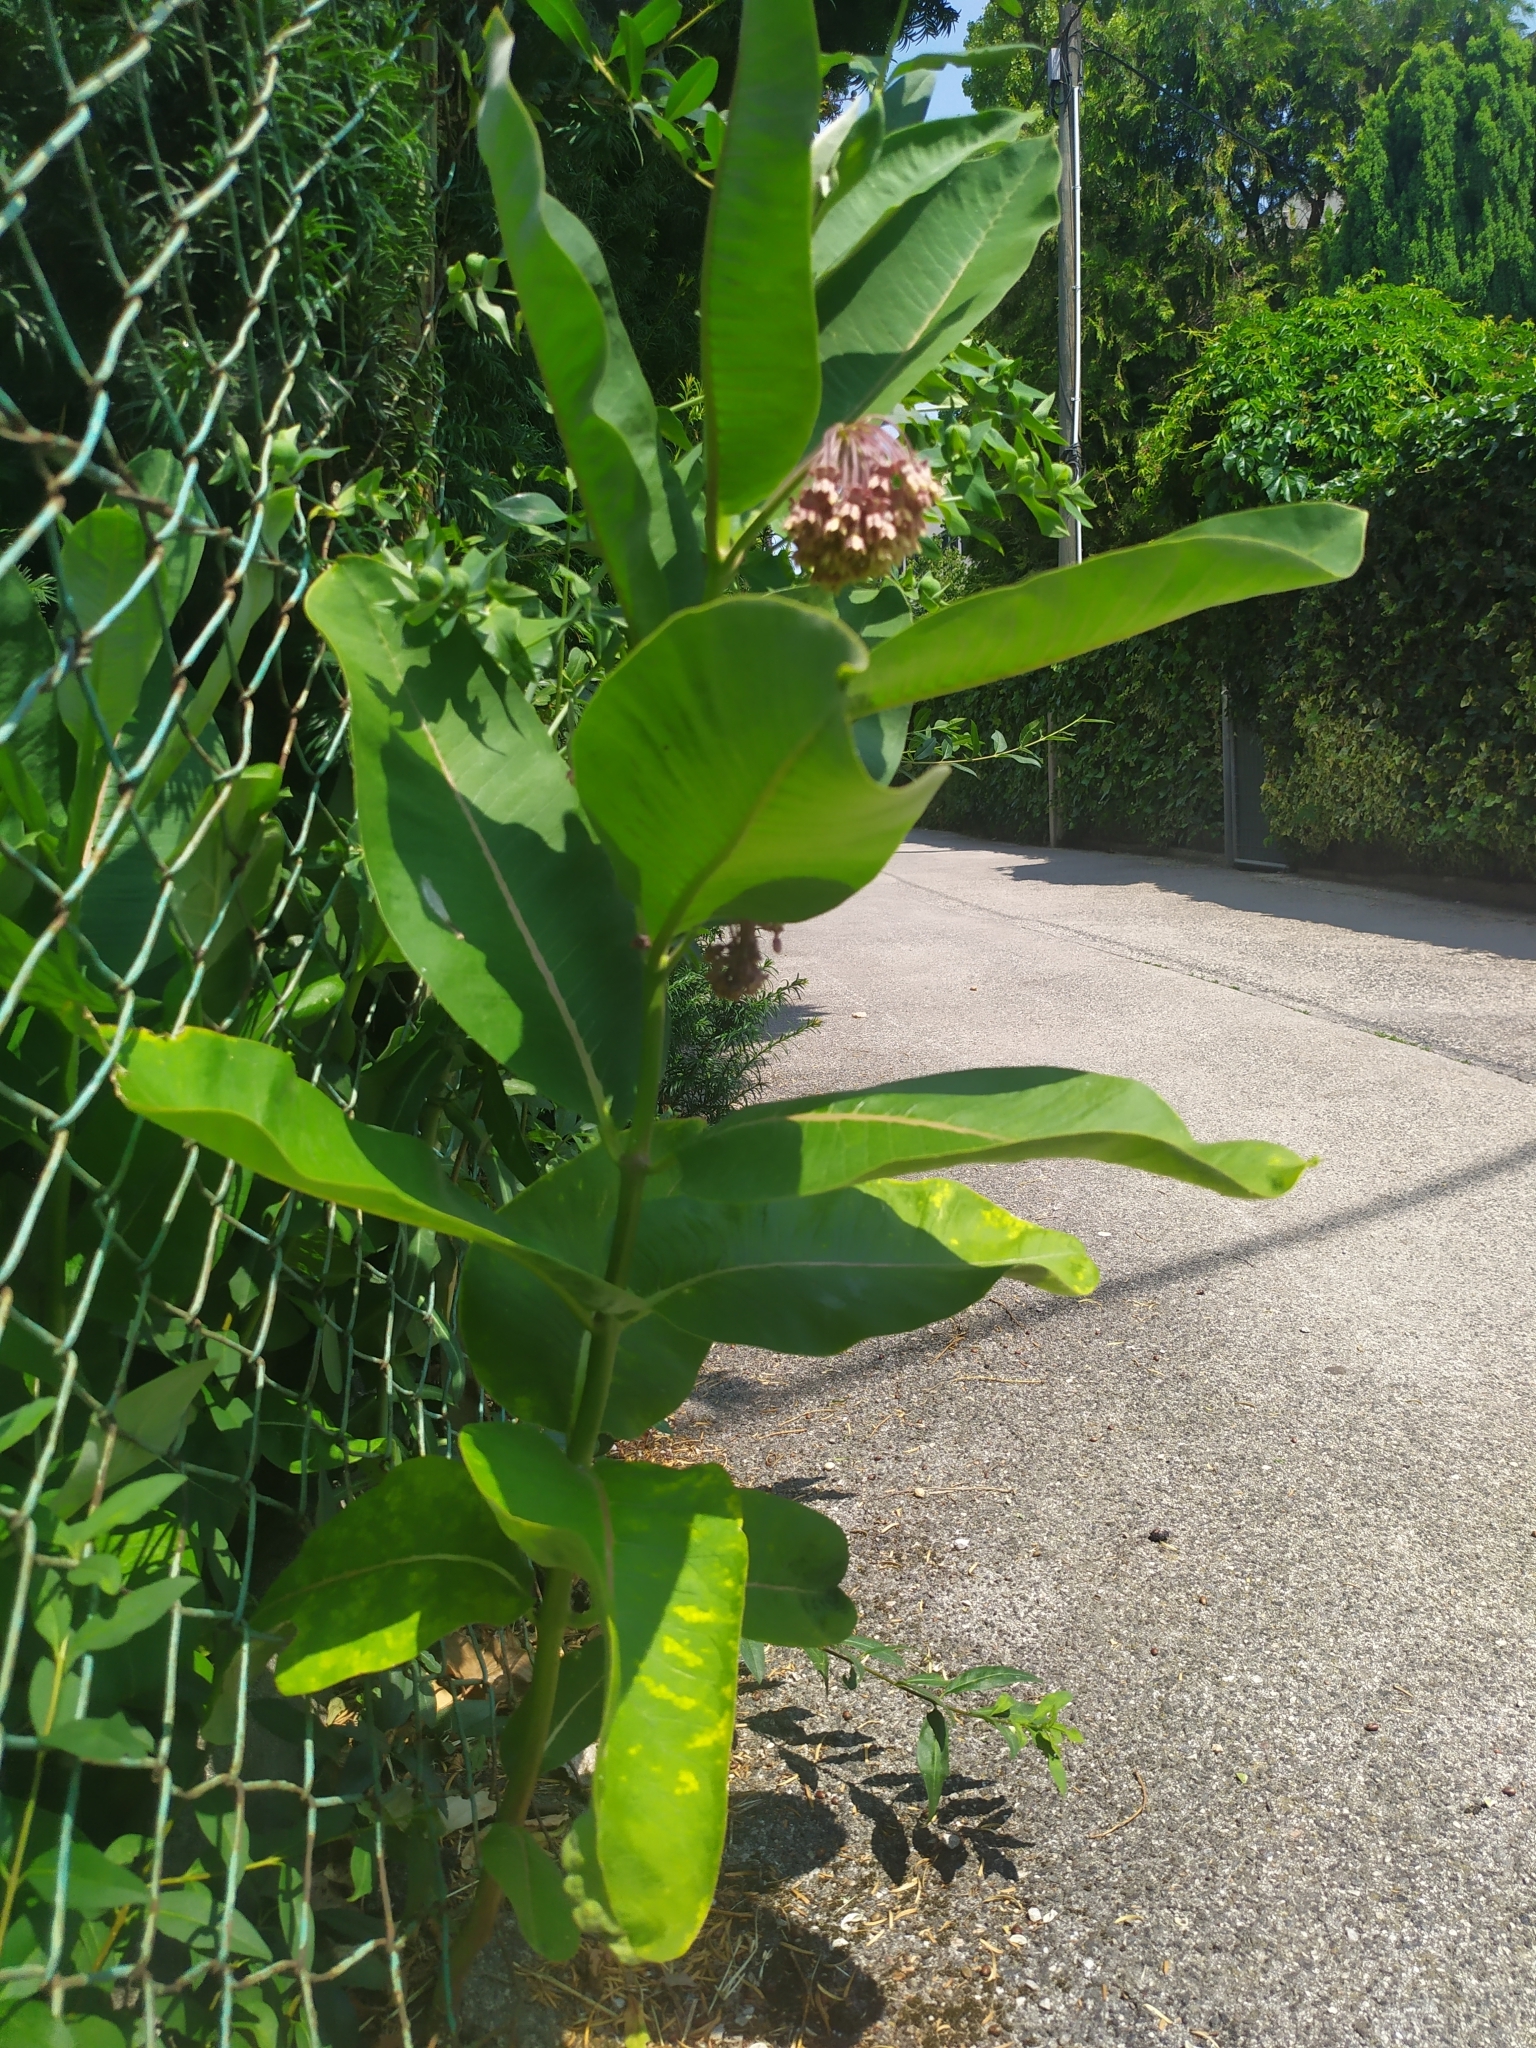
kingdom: Plantae
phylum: Tracheophyta
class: Magnoliopsida
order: Gentianales
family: Apocynaceae
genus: Asclepias
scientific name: Asclepias syriaca
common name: Common milkweed
